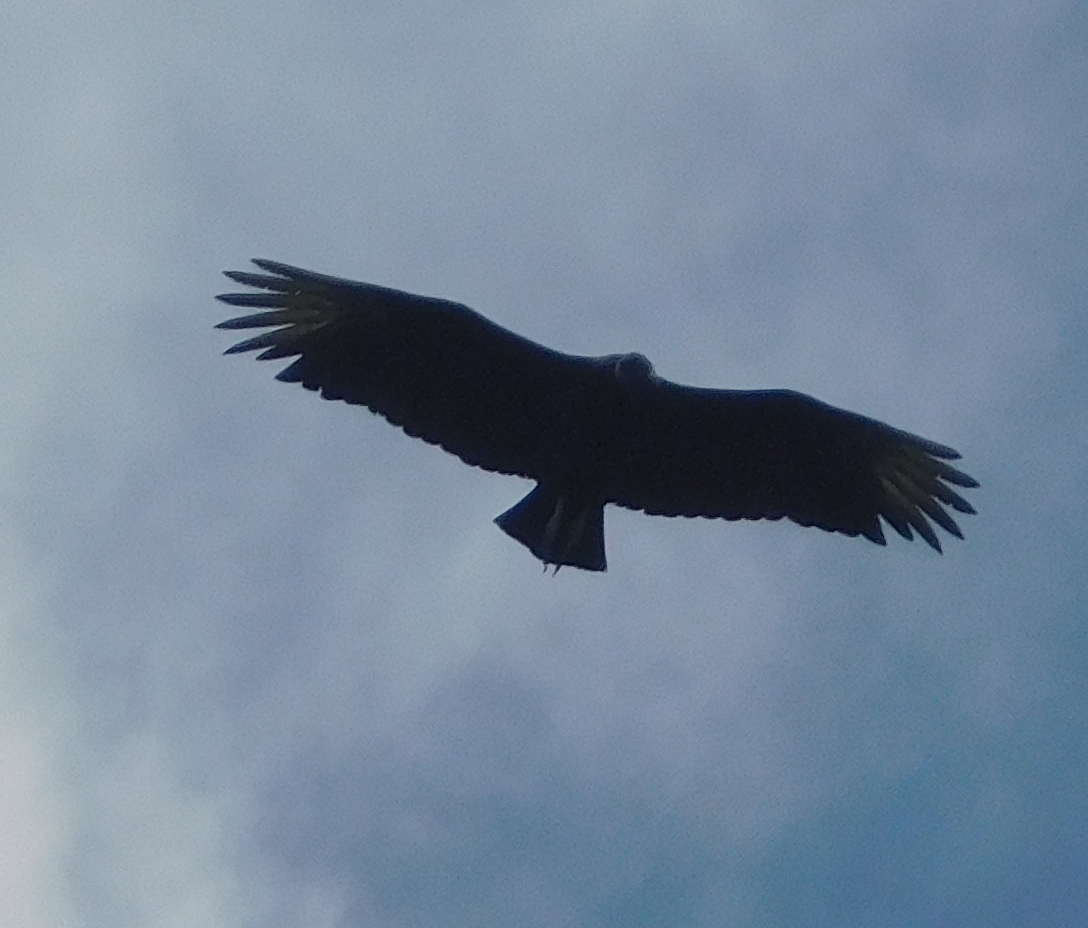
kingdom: Animalia
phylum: Chordata
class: Aves
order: Accipitriformes
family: Cathartidae
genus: Coragyps
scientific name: Coragyps atratus
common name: Black vulture
